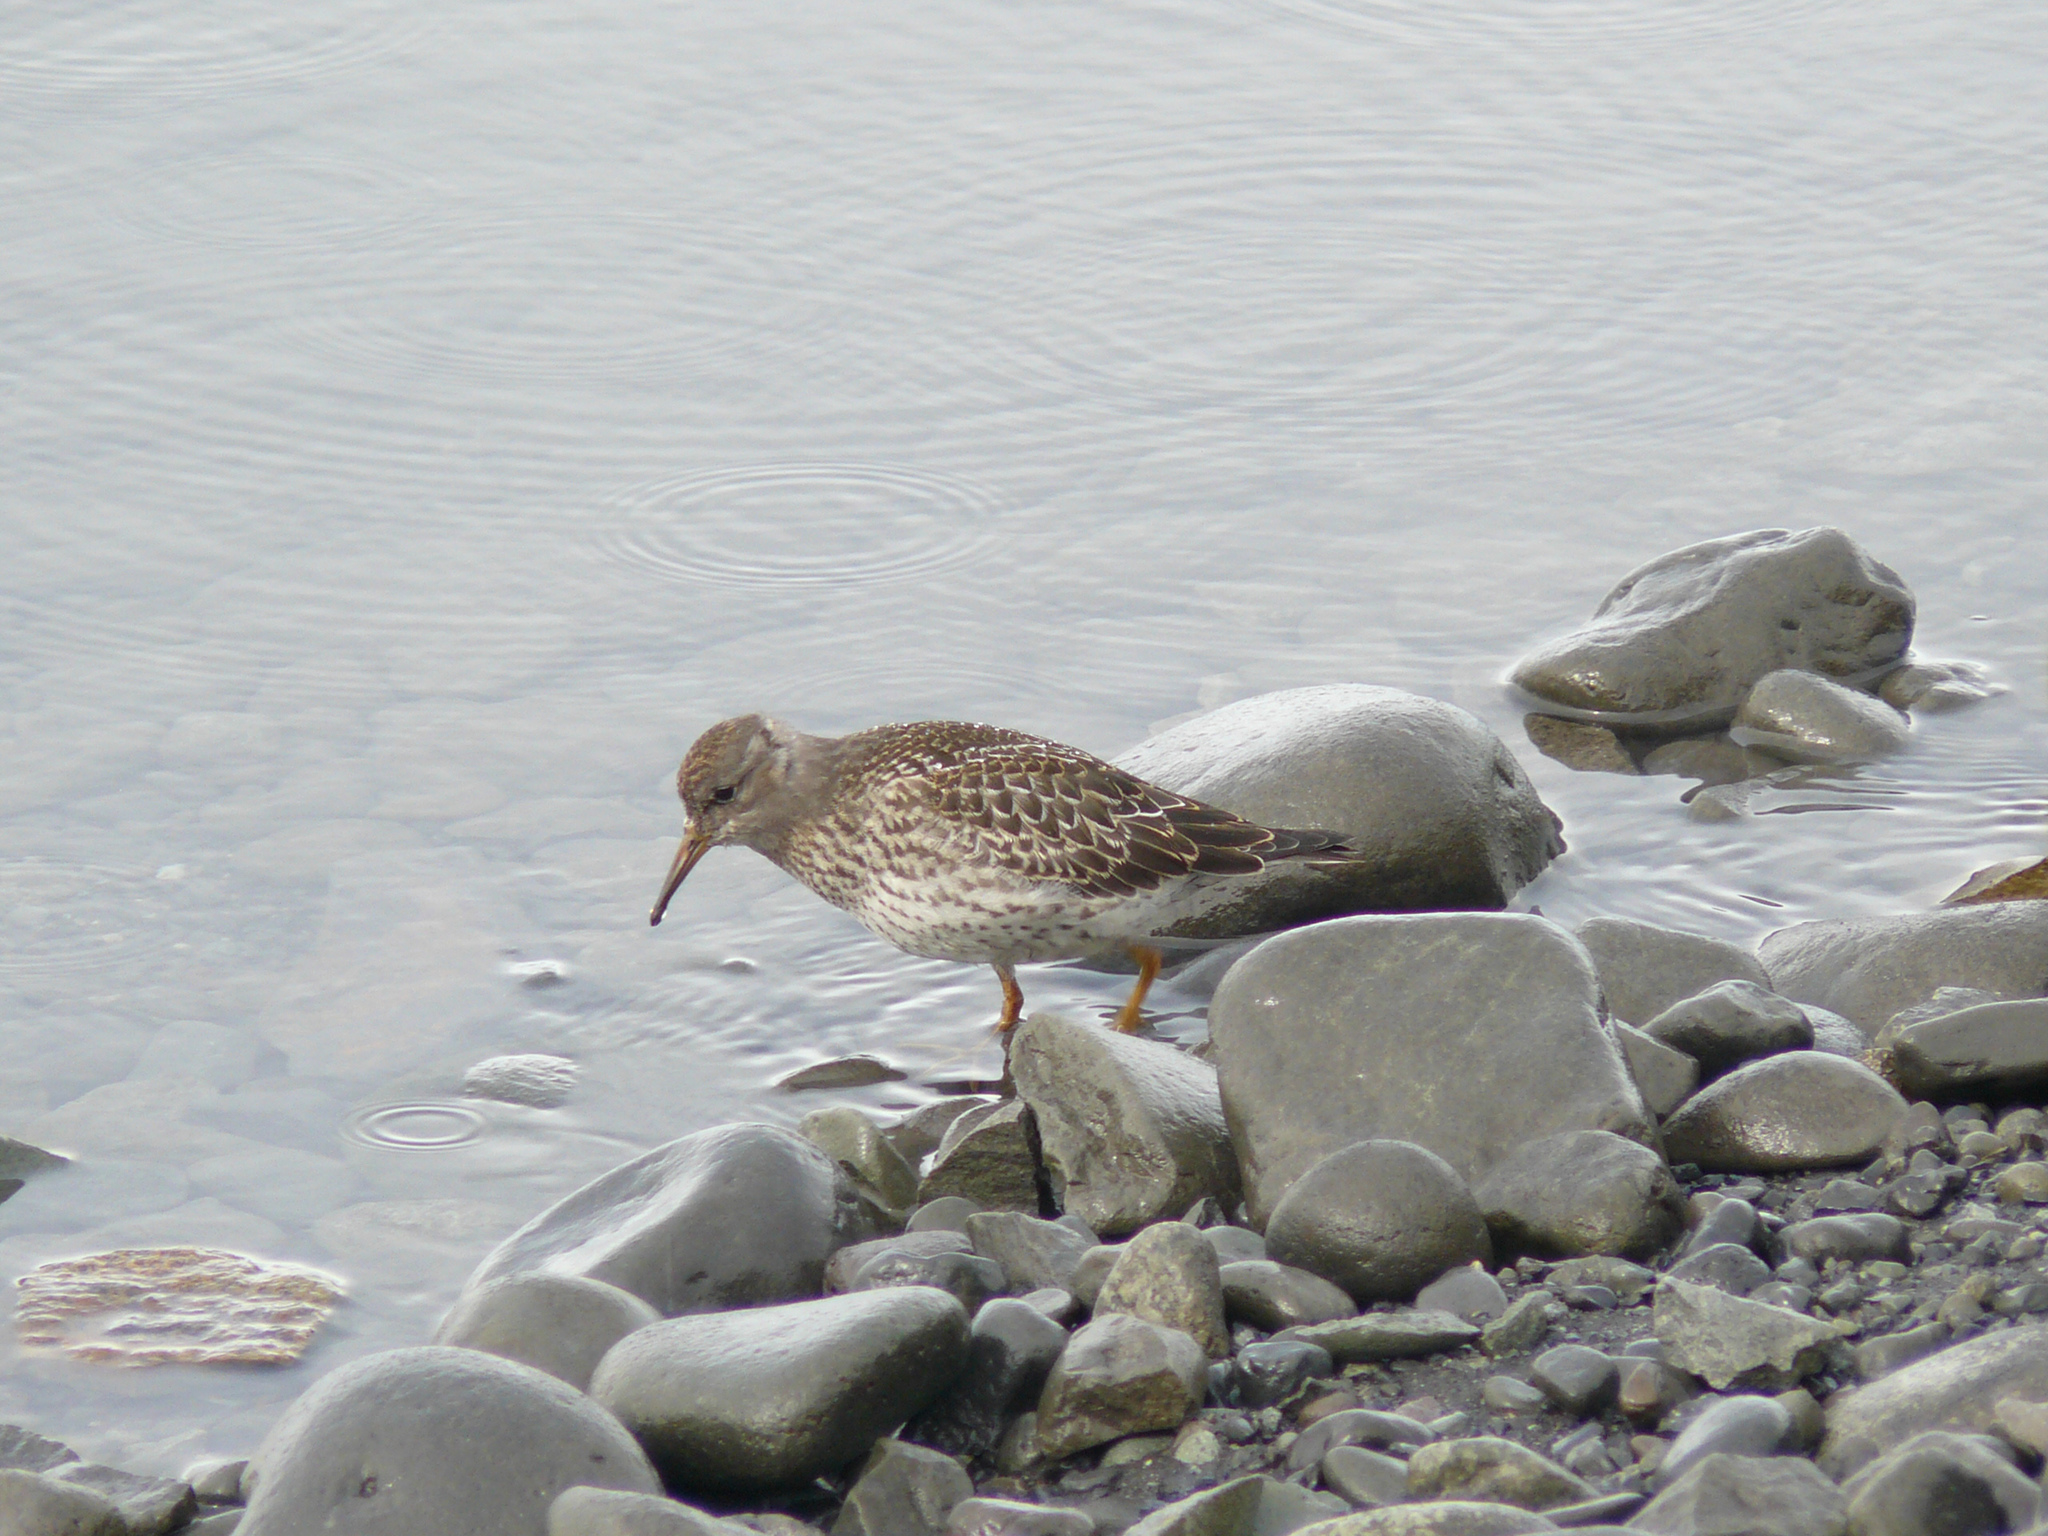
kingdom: Animalia
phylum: Chordata
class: Aves
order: Charadriiformes
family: Scolopacidae
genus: Calidris
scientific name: Calidris maritima
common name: Purple sandpiper
